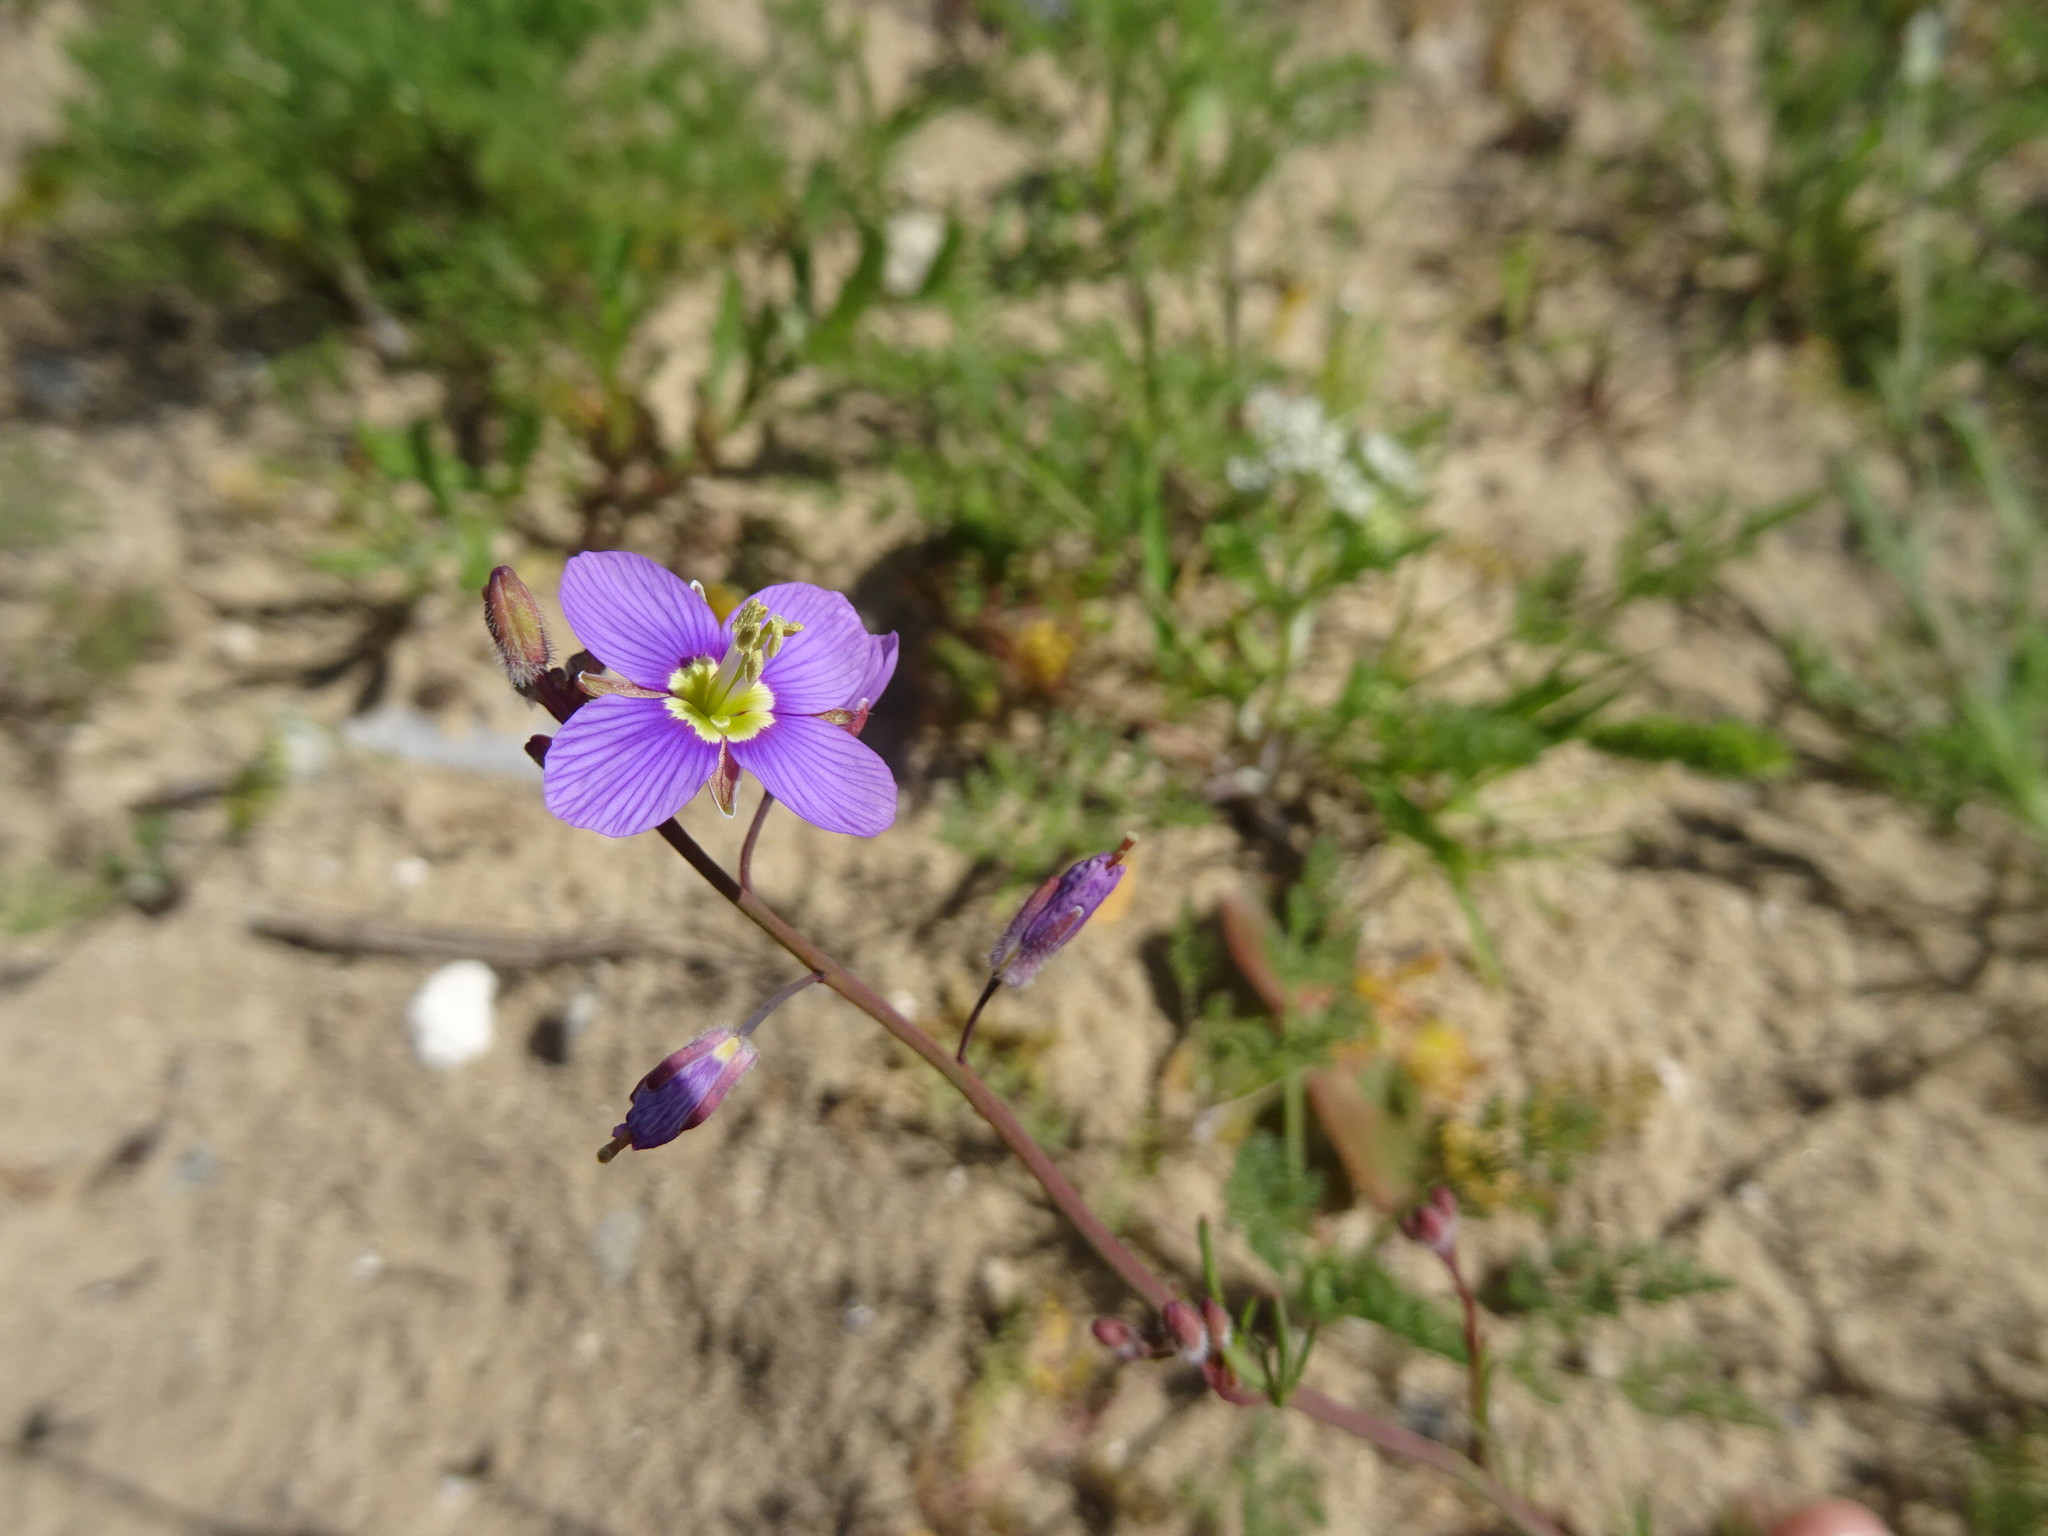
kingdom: Plantae
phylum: Tracheophyta
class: Magnoliopsida
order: Brassicales
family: Brassicaceae
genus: Heliophila
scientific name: Heliophila arenosa
